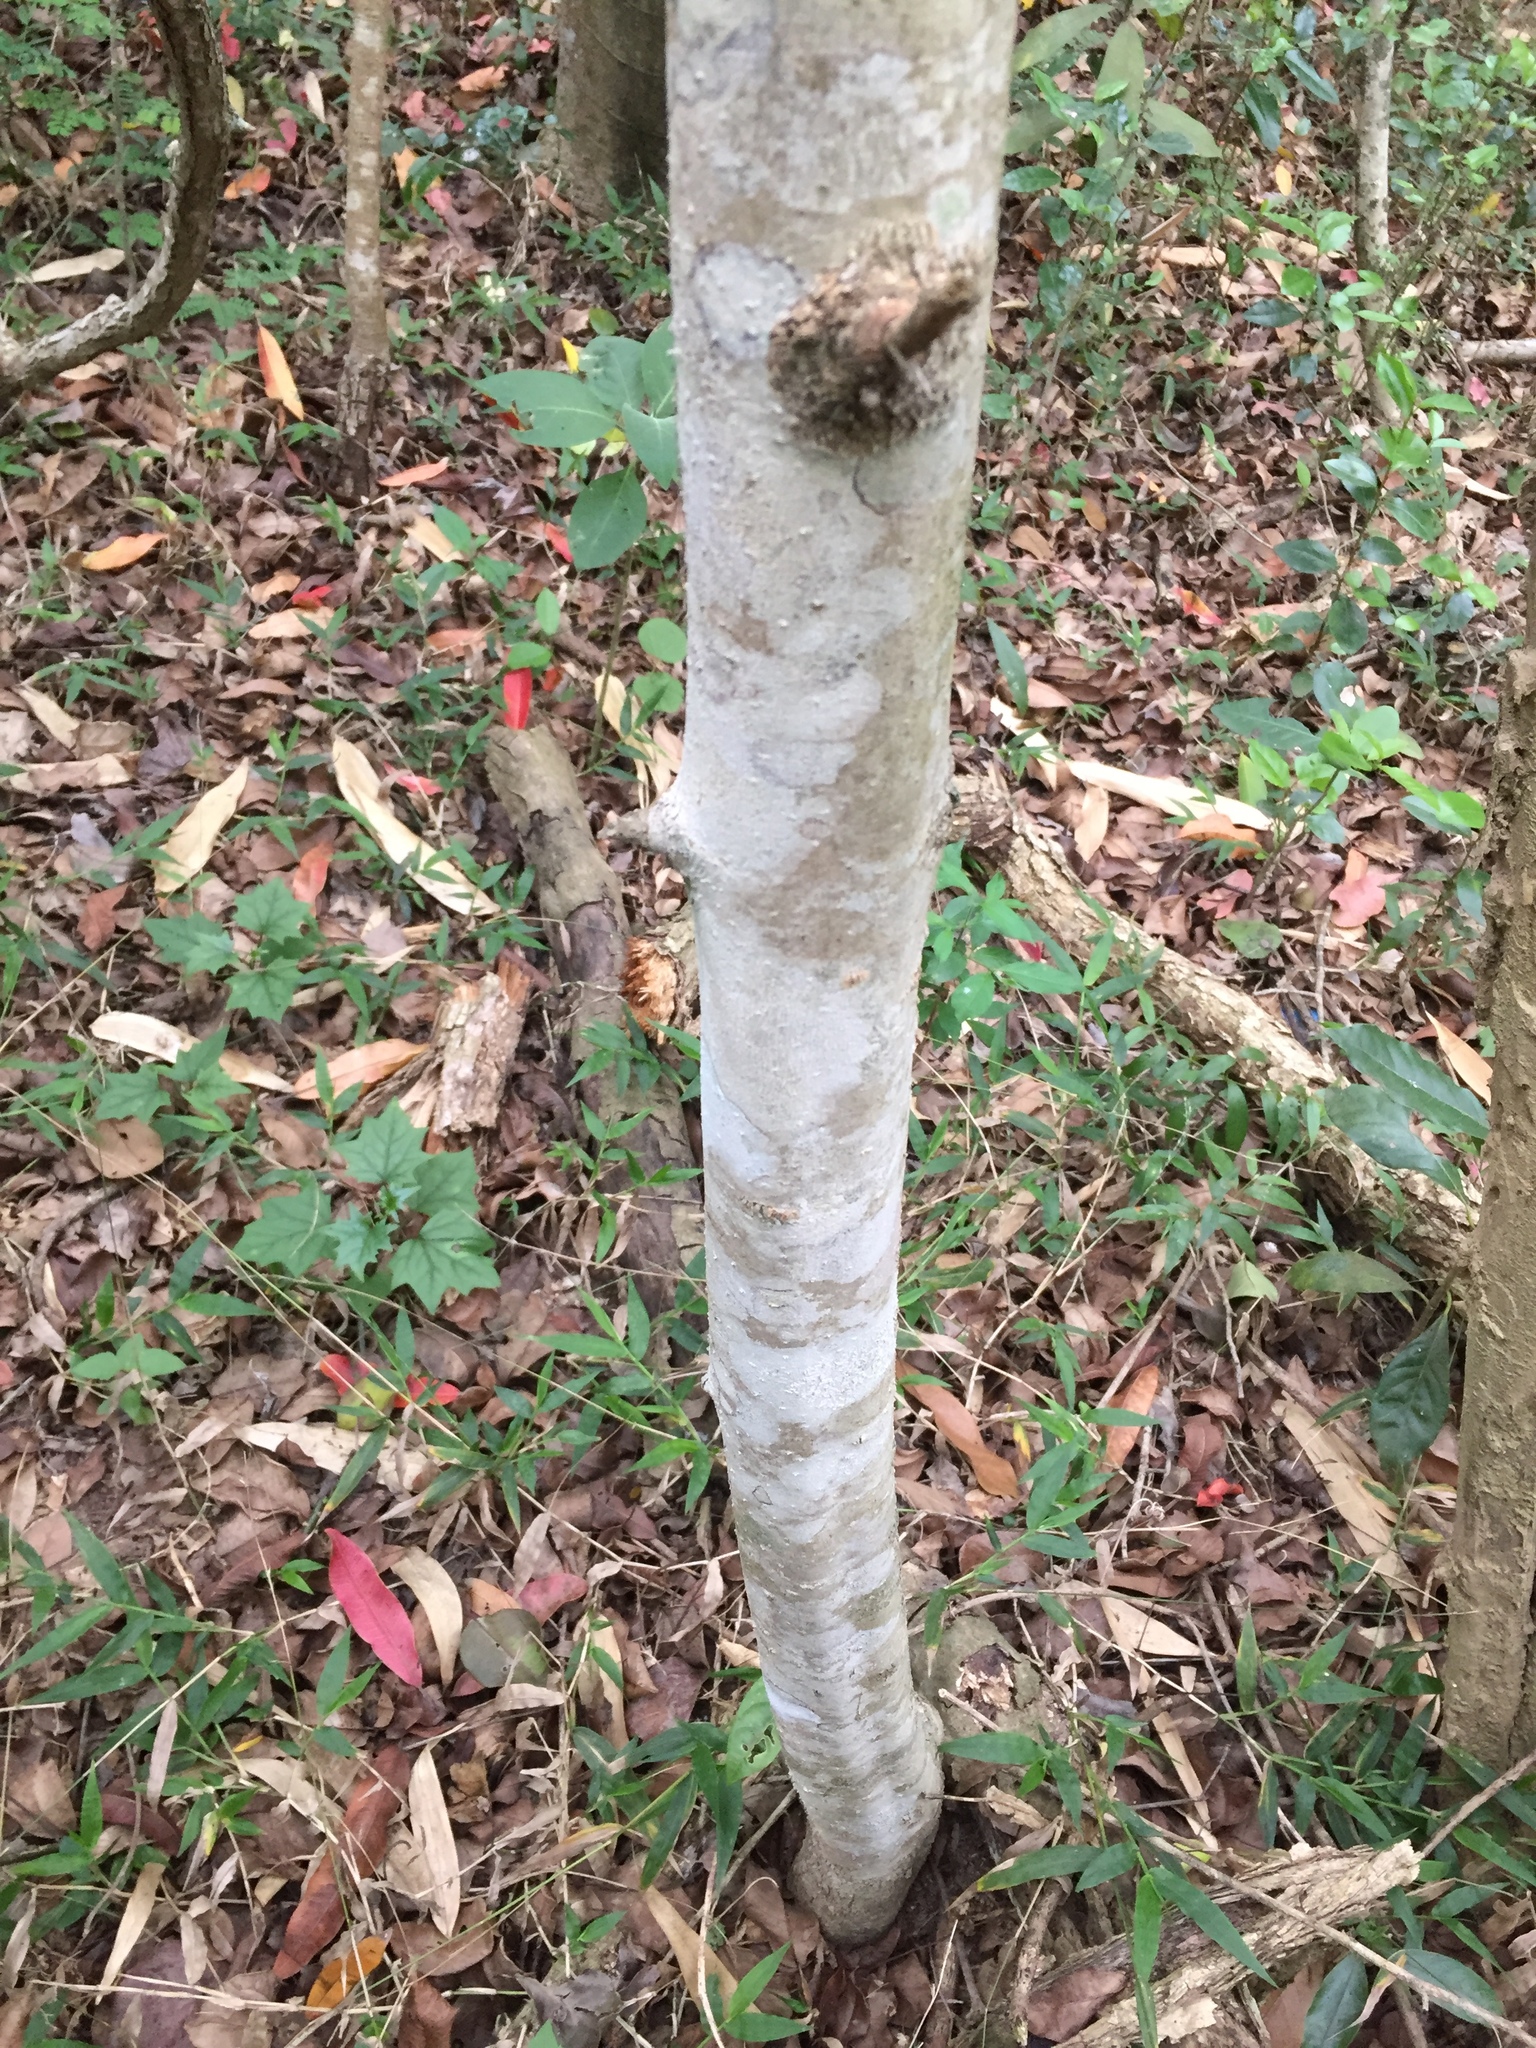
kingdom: Plantae
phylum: Tracheophyta
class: Magnoliopsida
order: Gentianales
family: Rubiaceae
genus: Vangueria
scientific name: Vangueria macrocalyx
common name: Crowned-medlar
